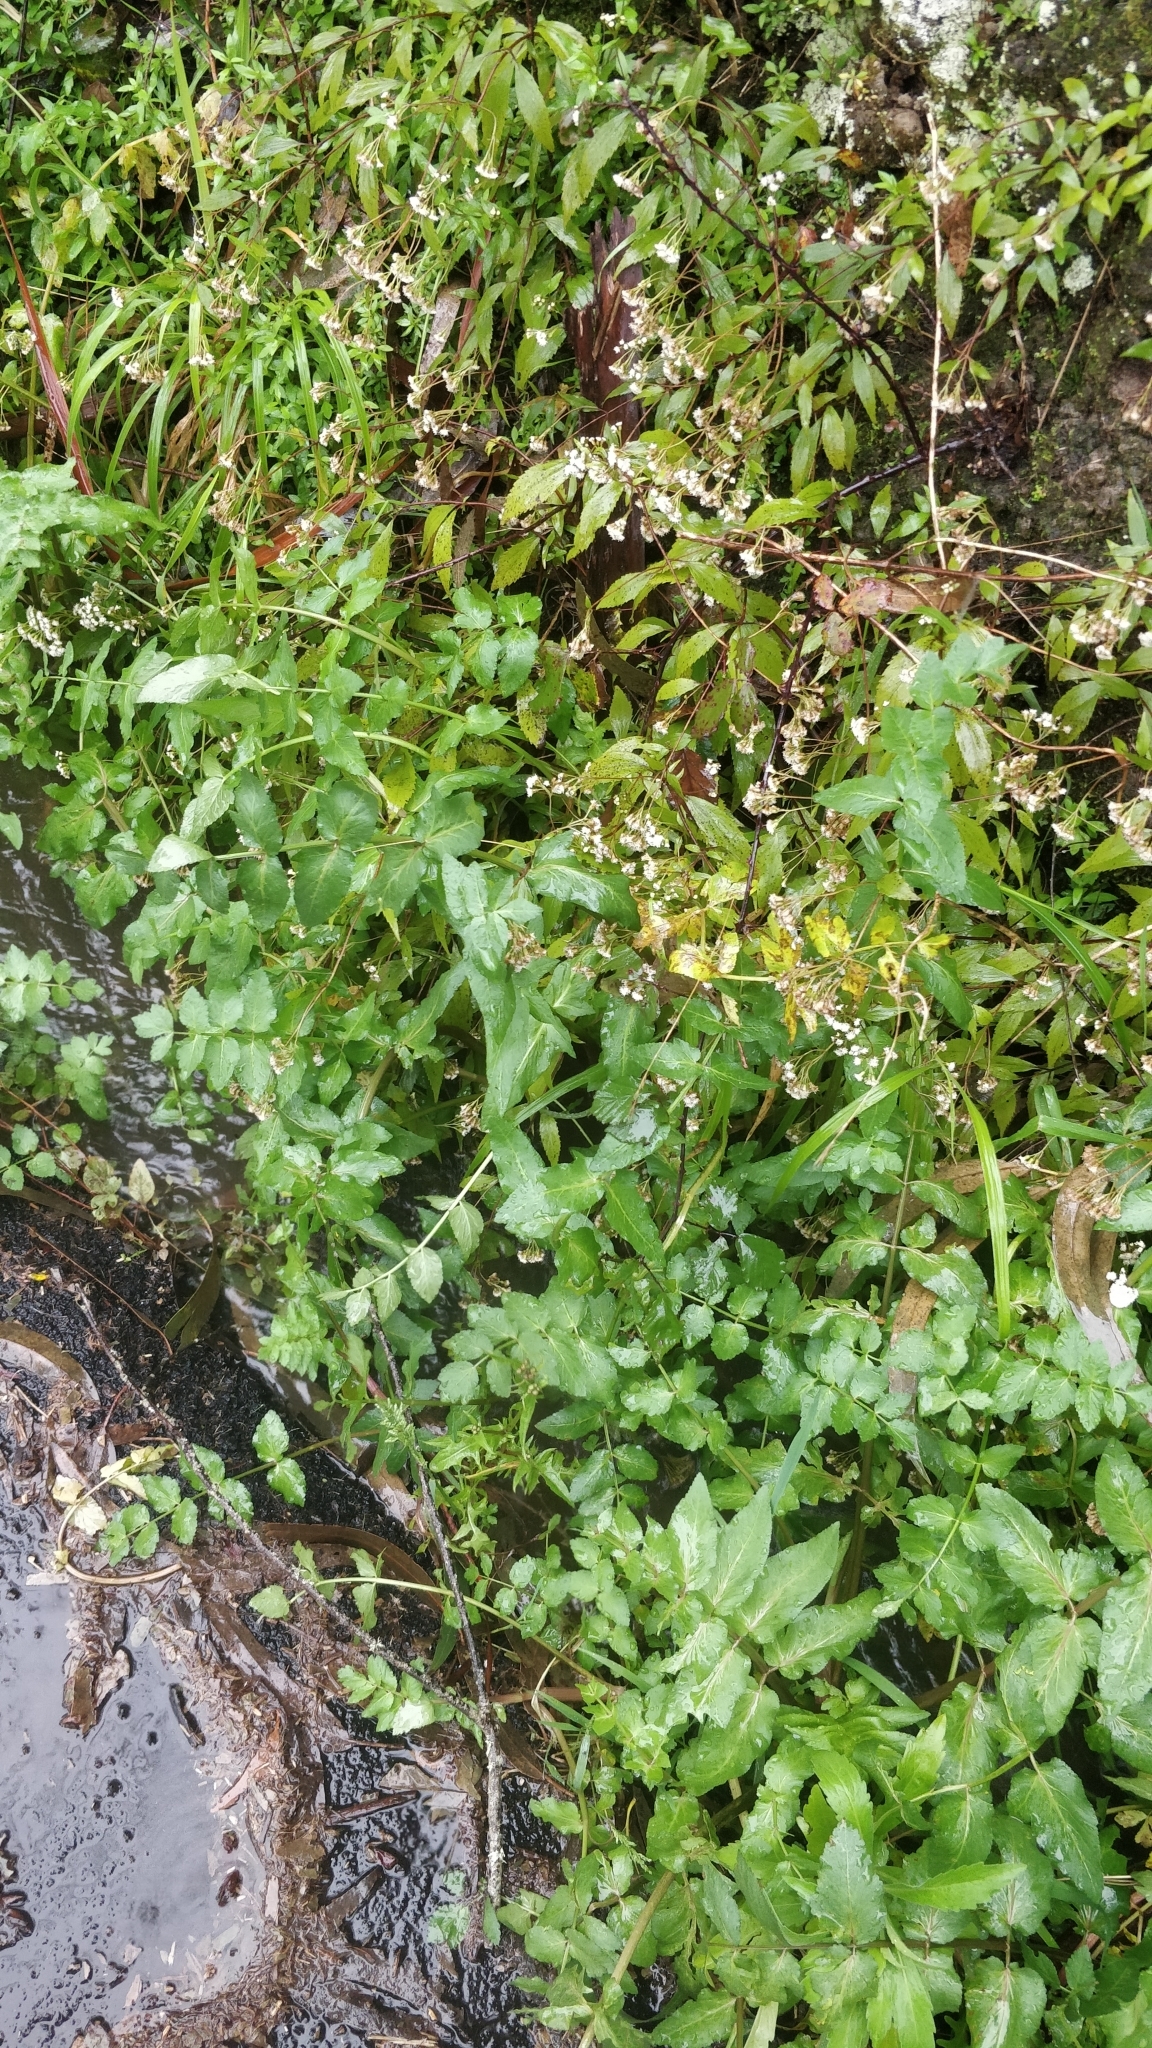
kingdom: Plantae
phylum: Tracheophyta
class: Magnoliopsida
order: Apiales
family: Apiaceae
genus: Helosciadium
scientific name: Helosciadium nodiflorum
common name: Fool's-watercress
